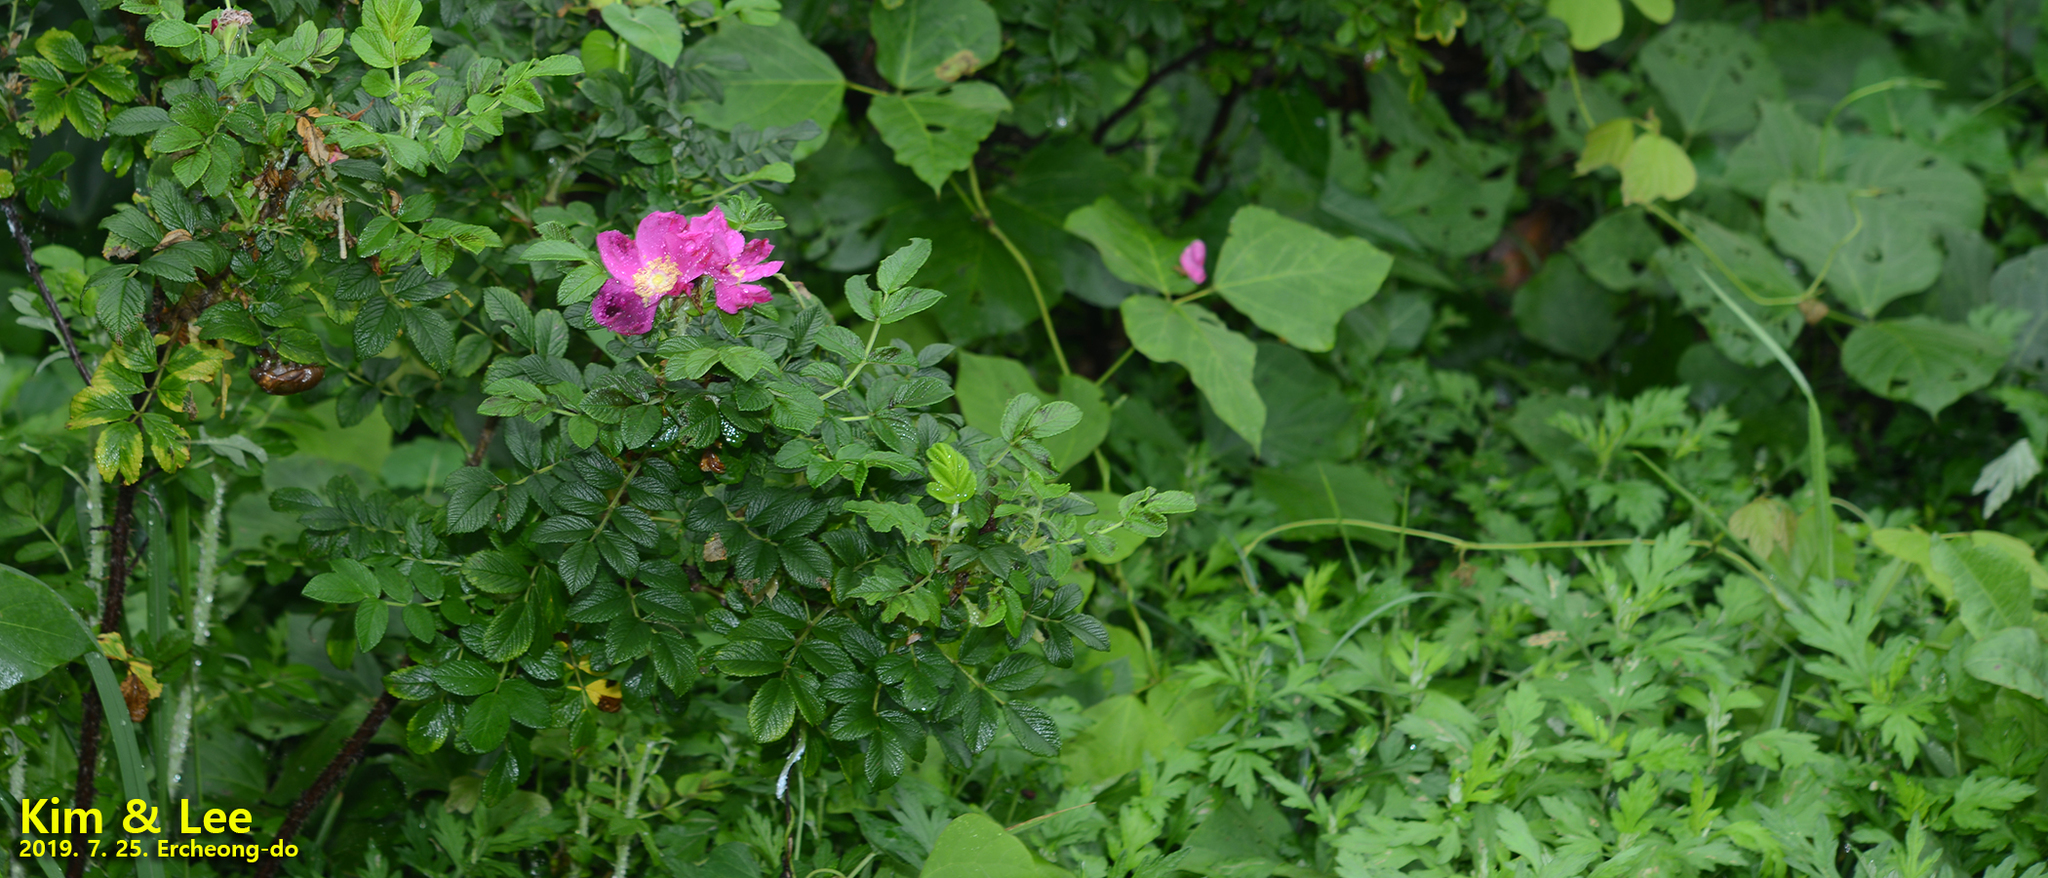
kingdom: Plantae
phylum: Tracheophyta
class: Magnoliopsida
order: Rosales
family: Rosaceae
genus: Rosa
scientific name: Rosa rugosa
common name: Japanese rose
